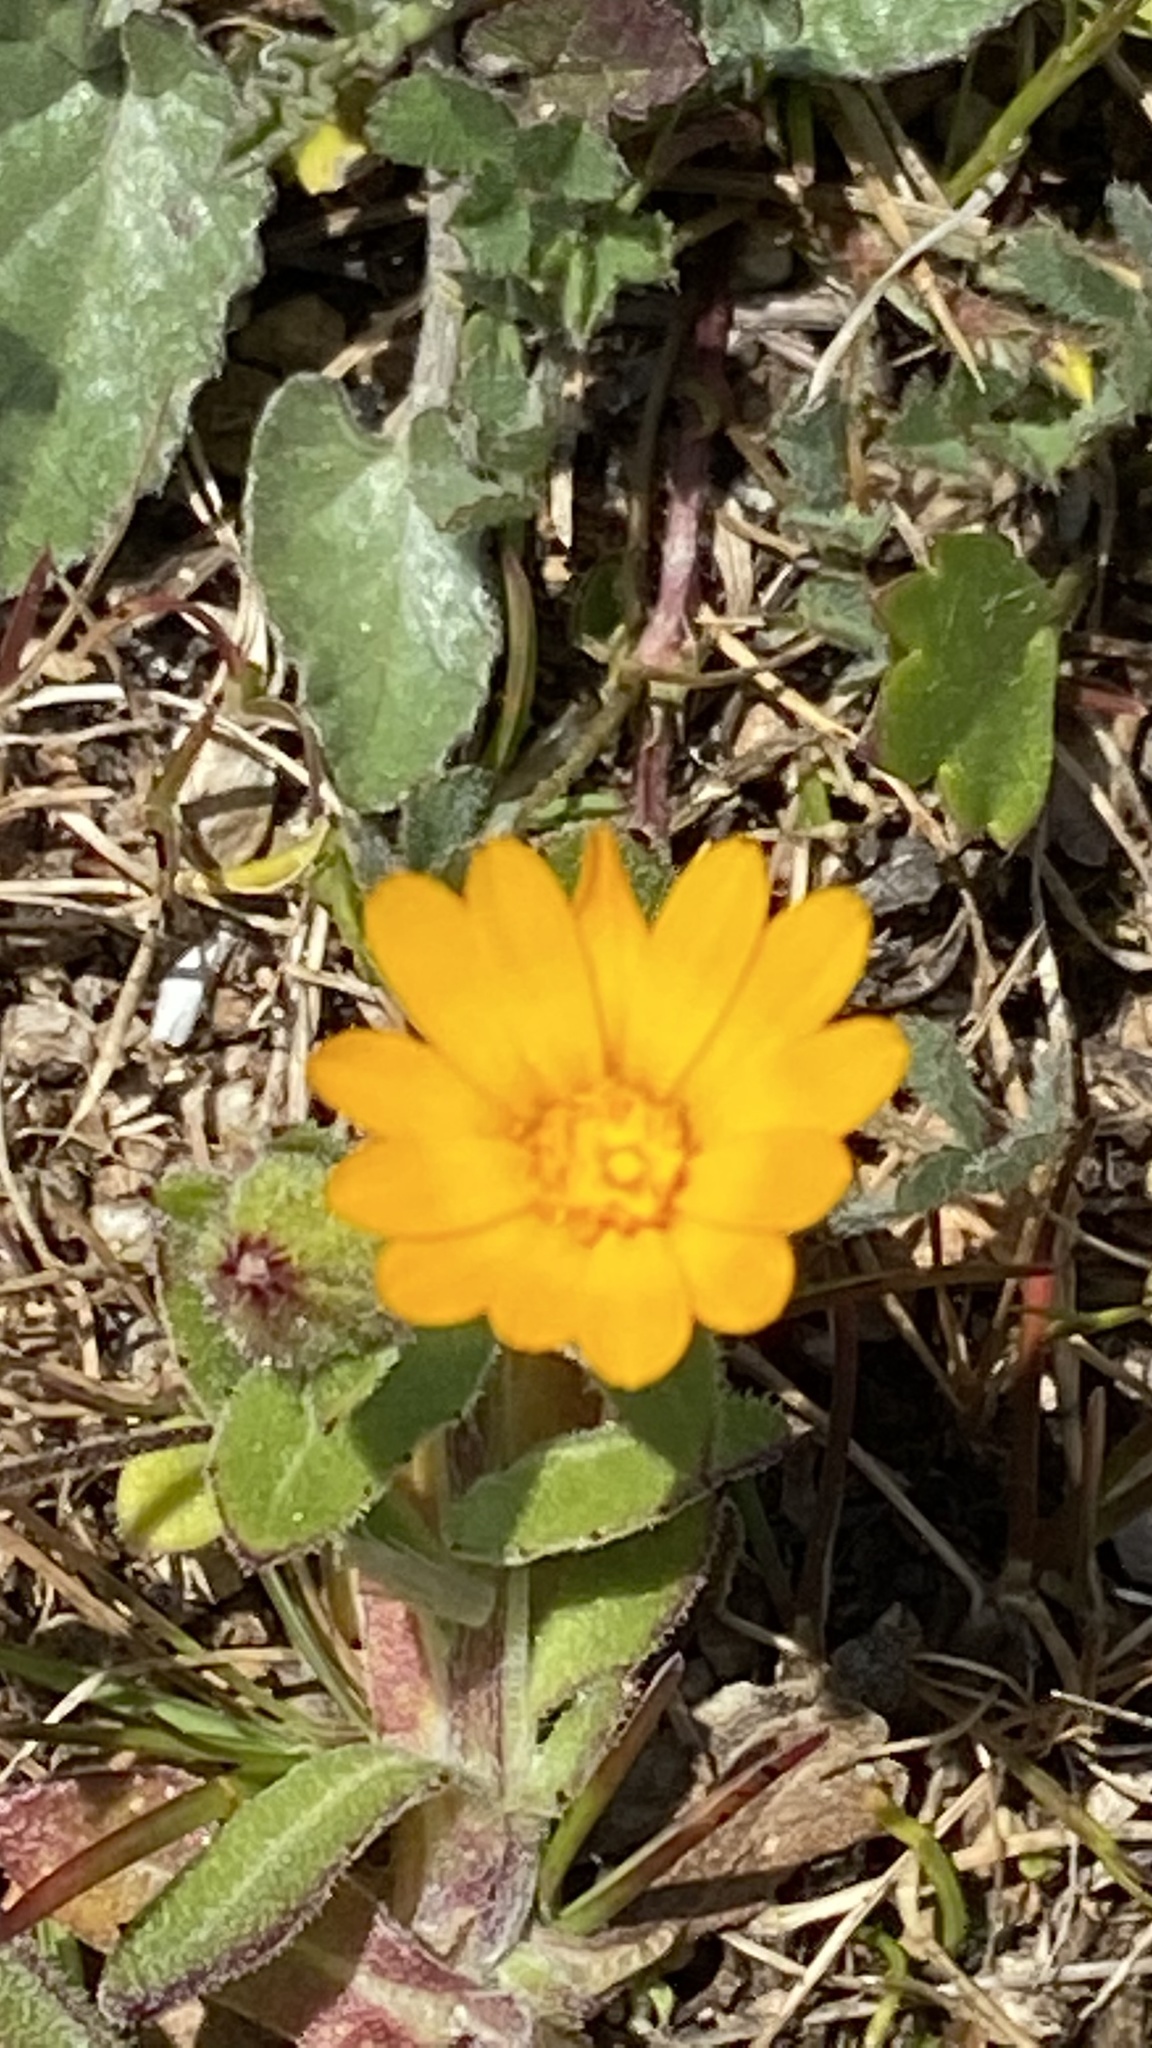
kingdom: Plantae
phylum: Tracheophyta
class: Magnoliopsida
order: Asterales
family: Asteraceae
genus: Calendula
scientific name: Calendula arvensis
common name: Field marigold
